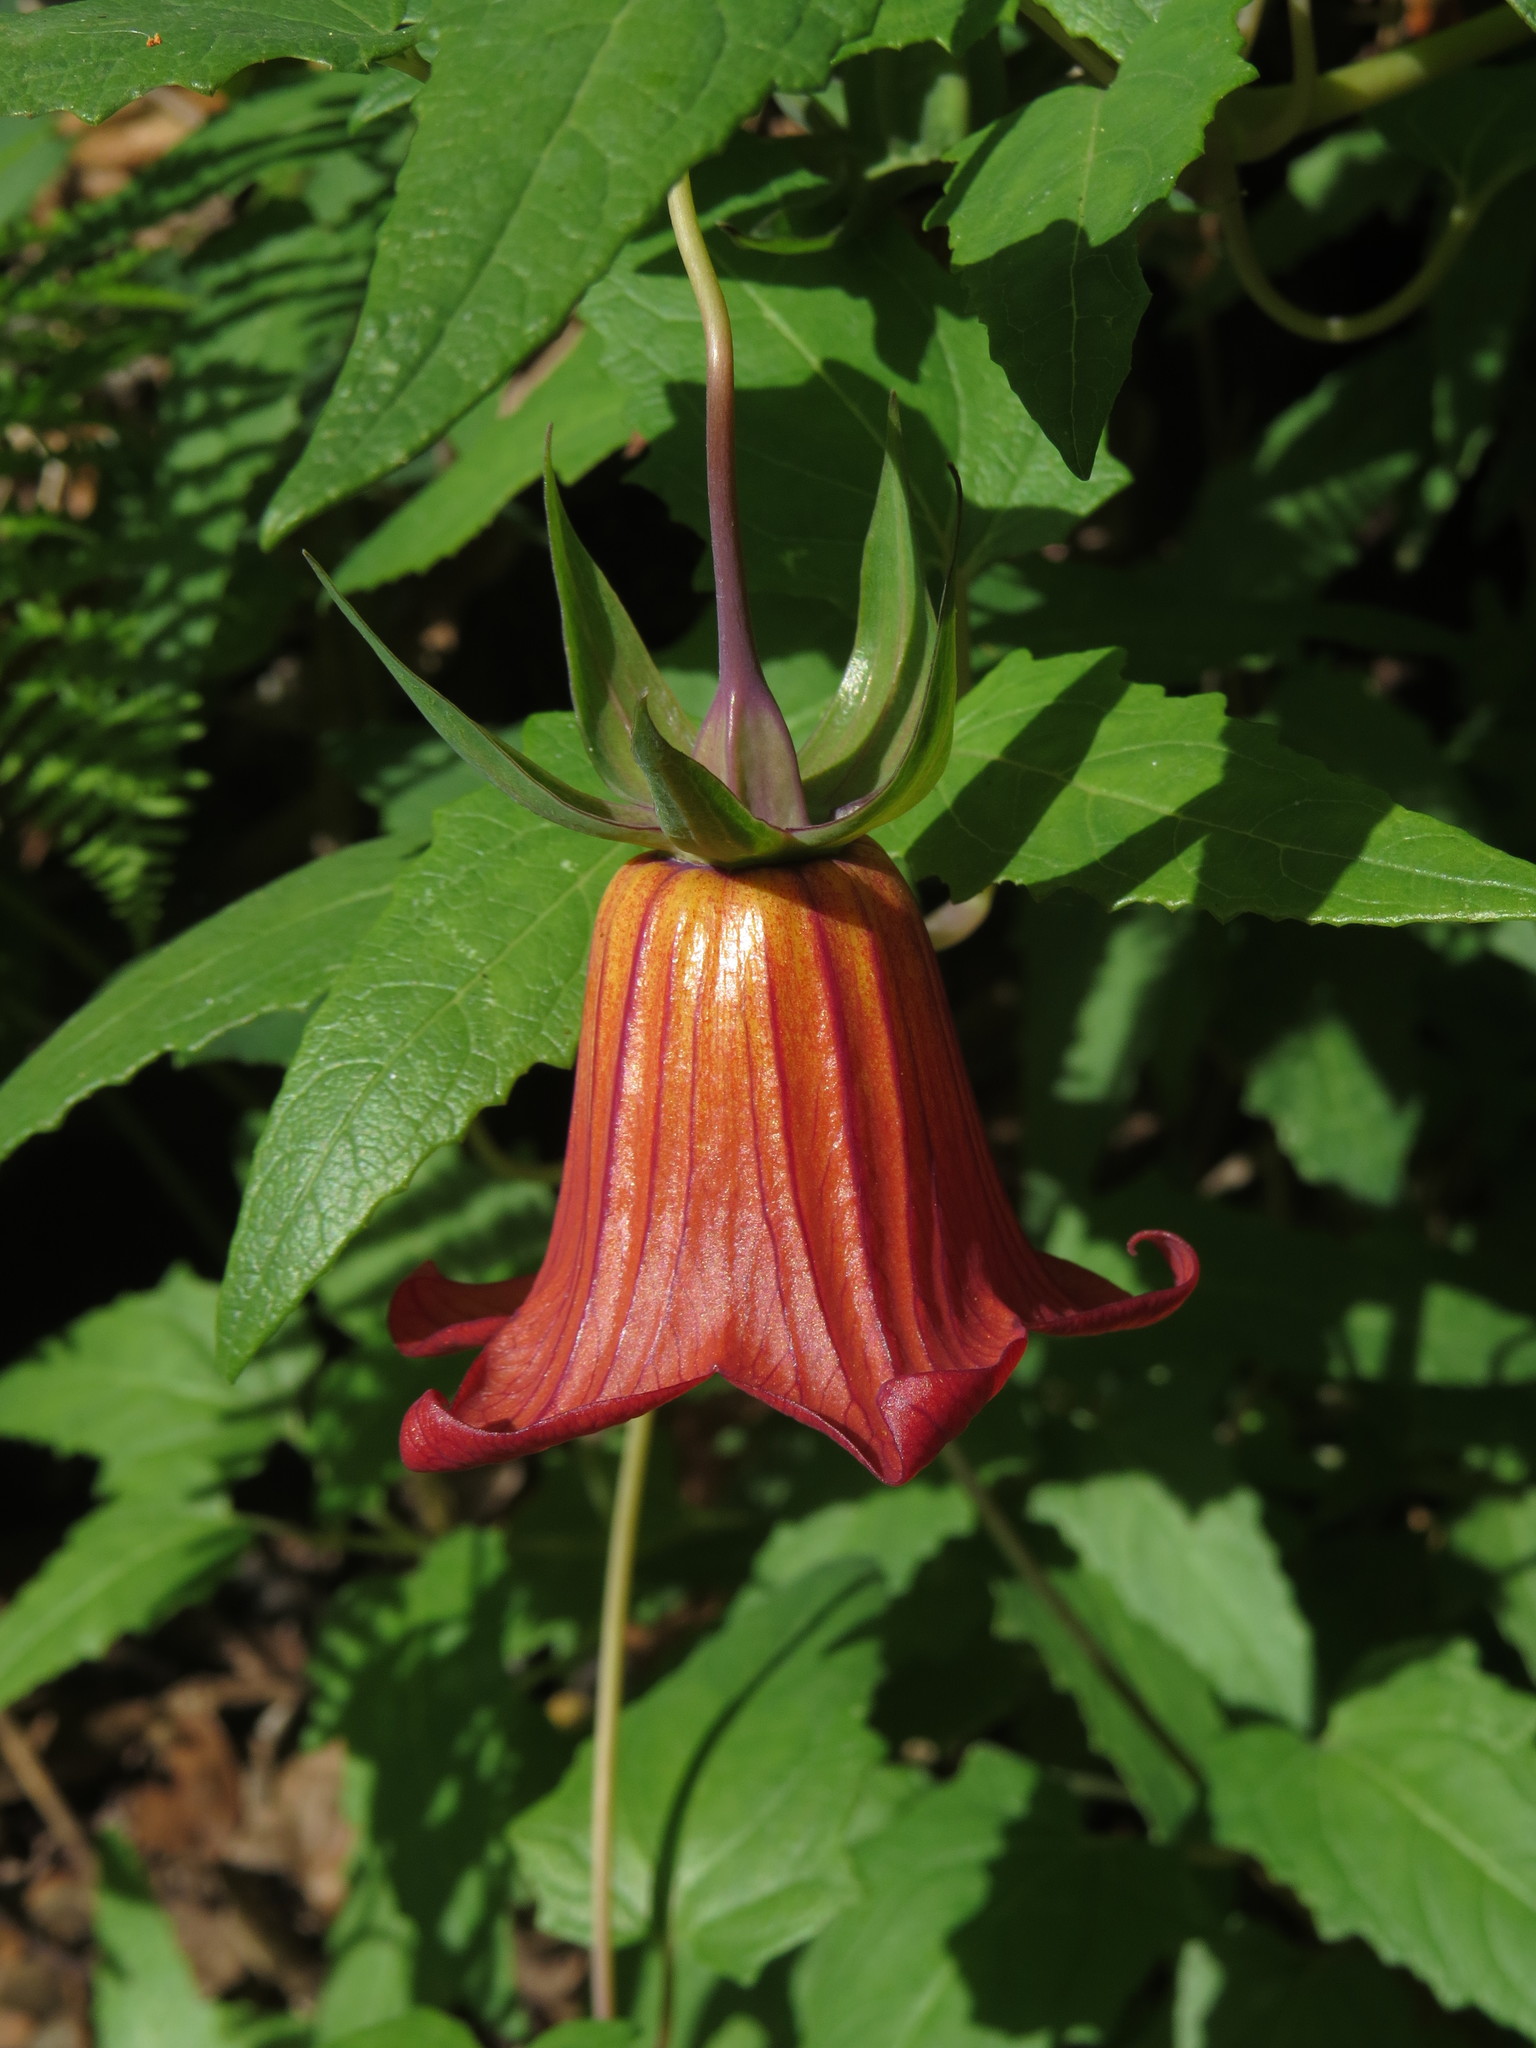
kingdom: Plantae
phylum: Tracheophyta
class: Magnoliopsida
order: Asterales
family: Campanulaceae
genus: Canarina
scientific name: Canarina canariensis
